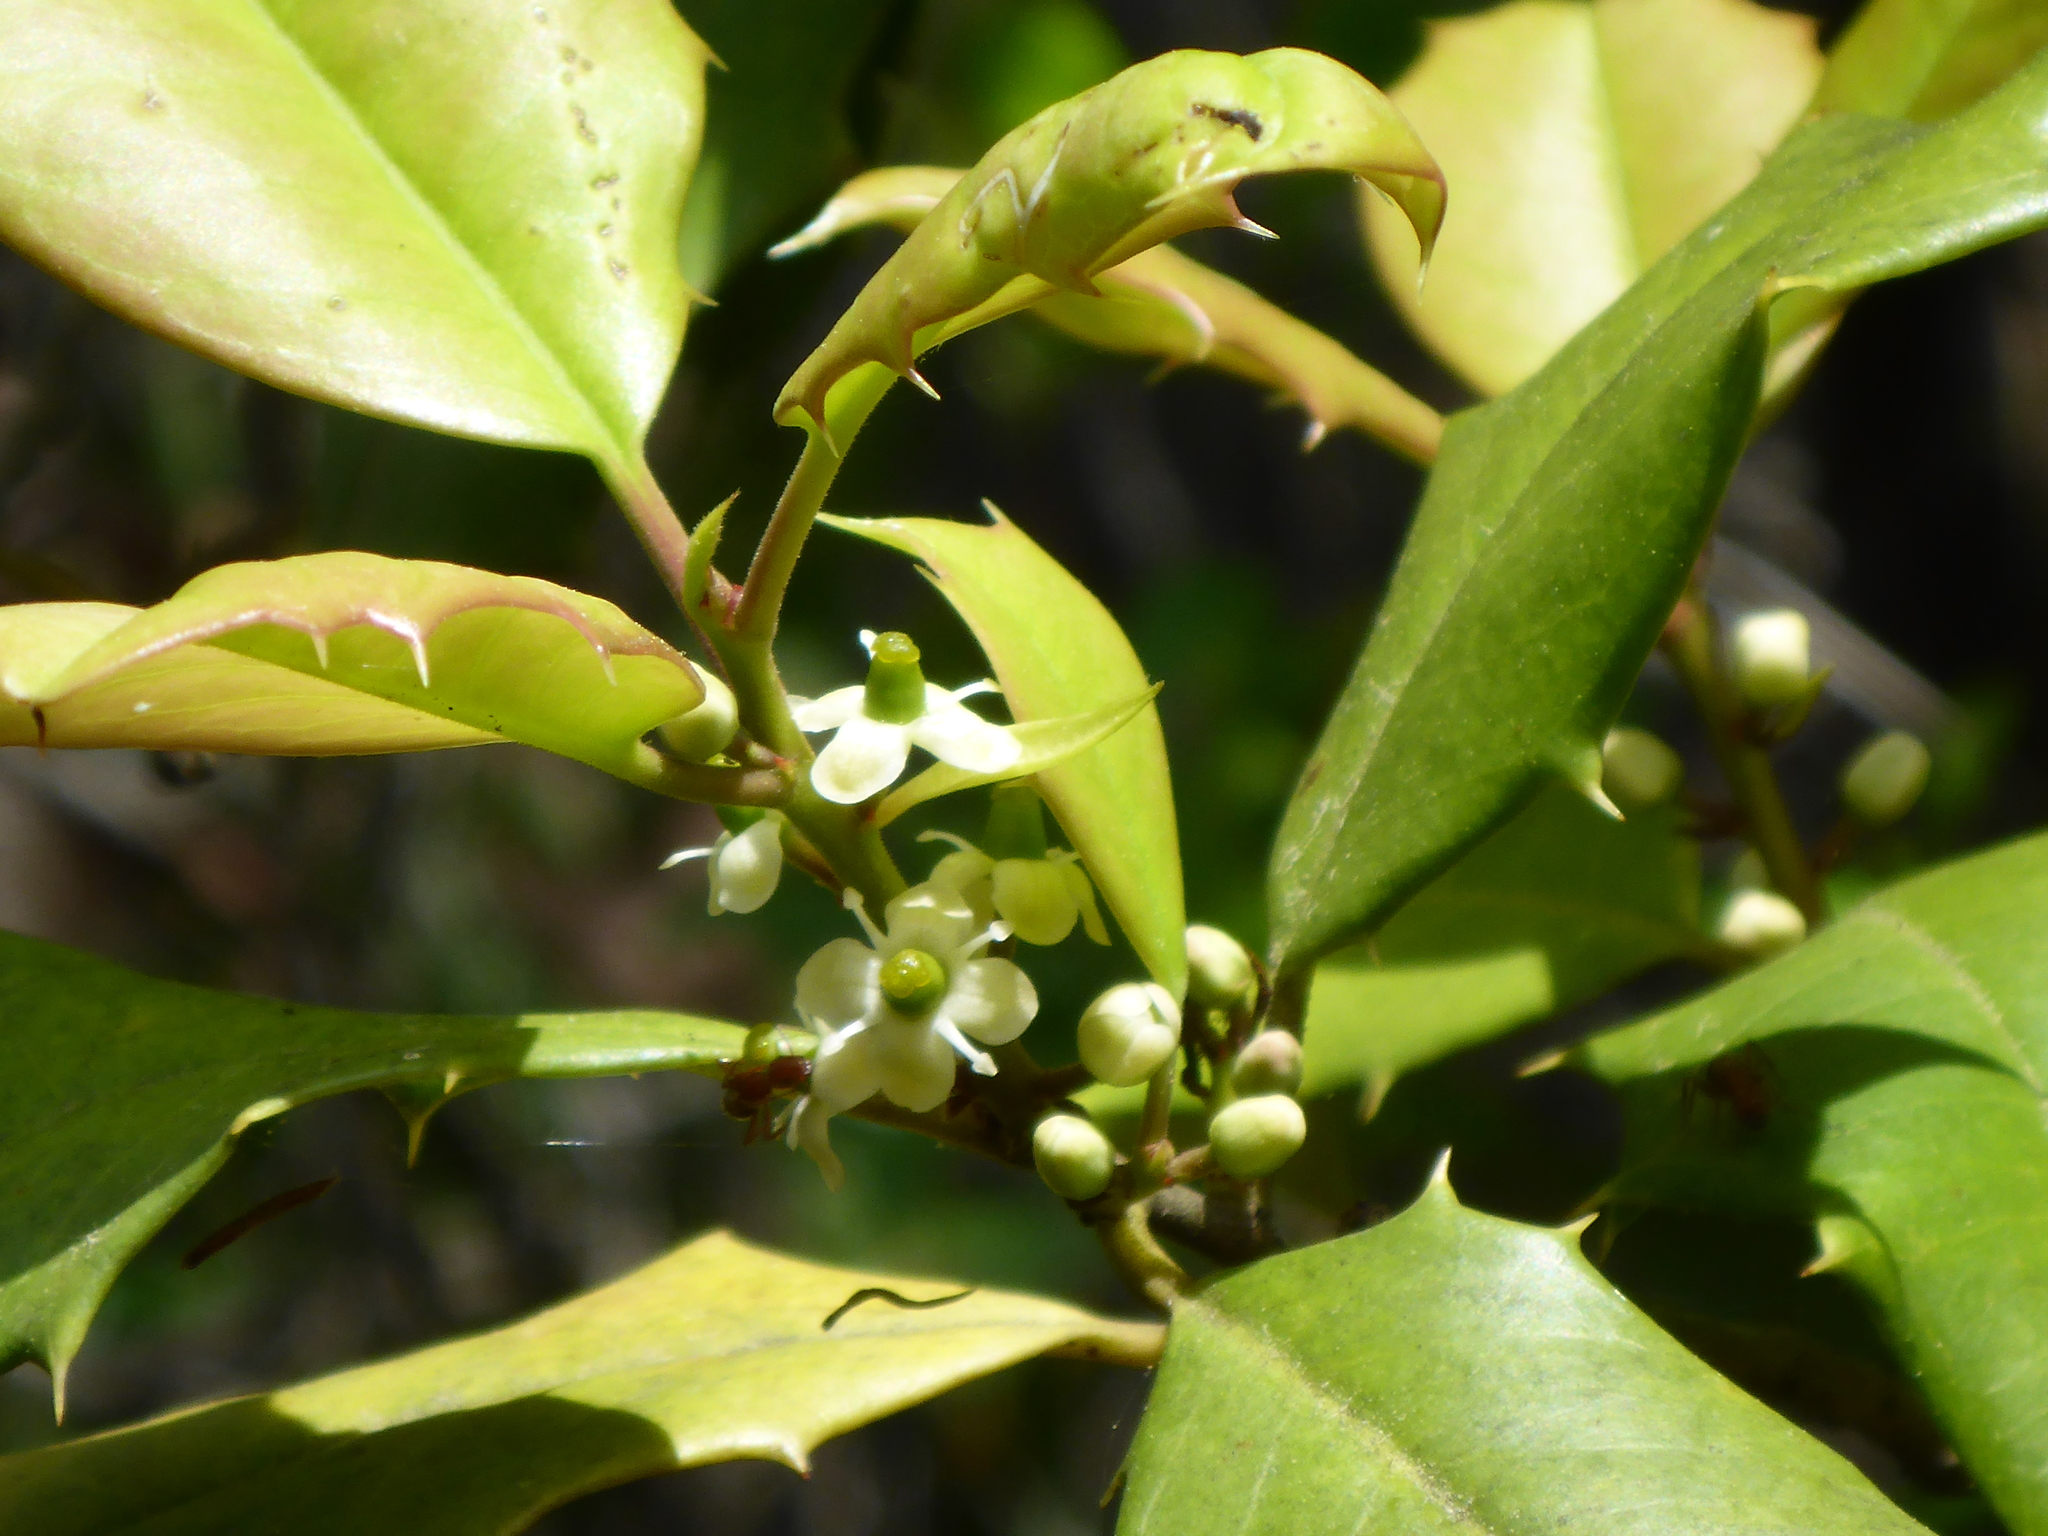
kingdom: Plantae
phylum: Tracheophyta
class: Magnoliopsida
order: Aquifoliales
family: Aquifoliaceae
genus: Ilex
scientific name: Ilex opaca
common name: American holly
